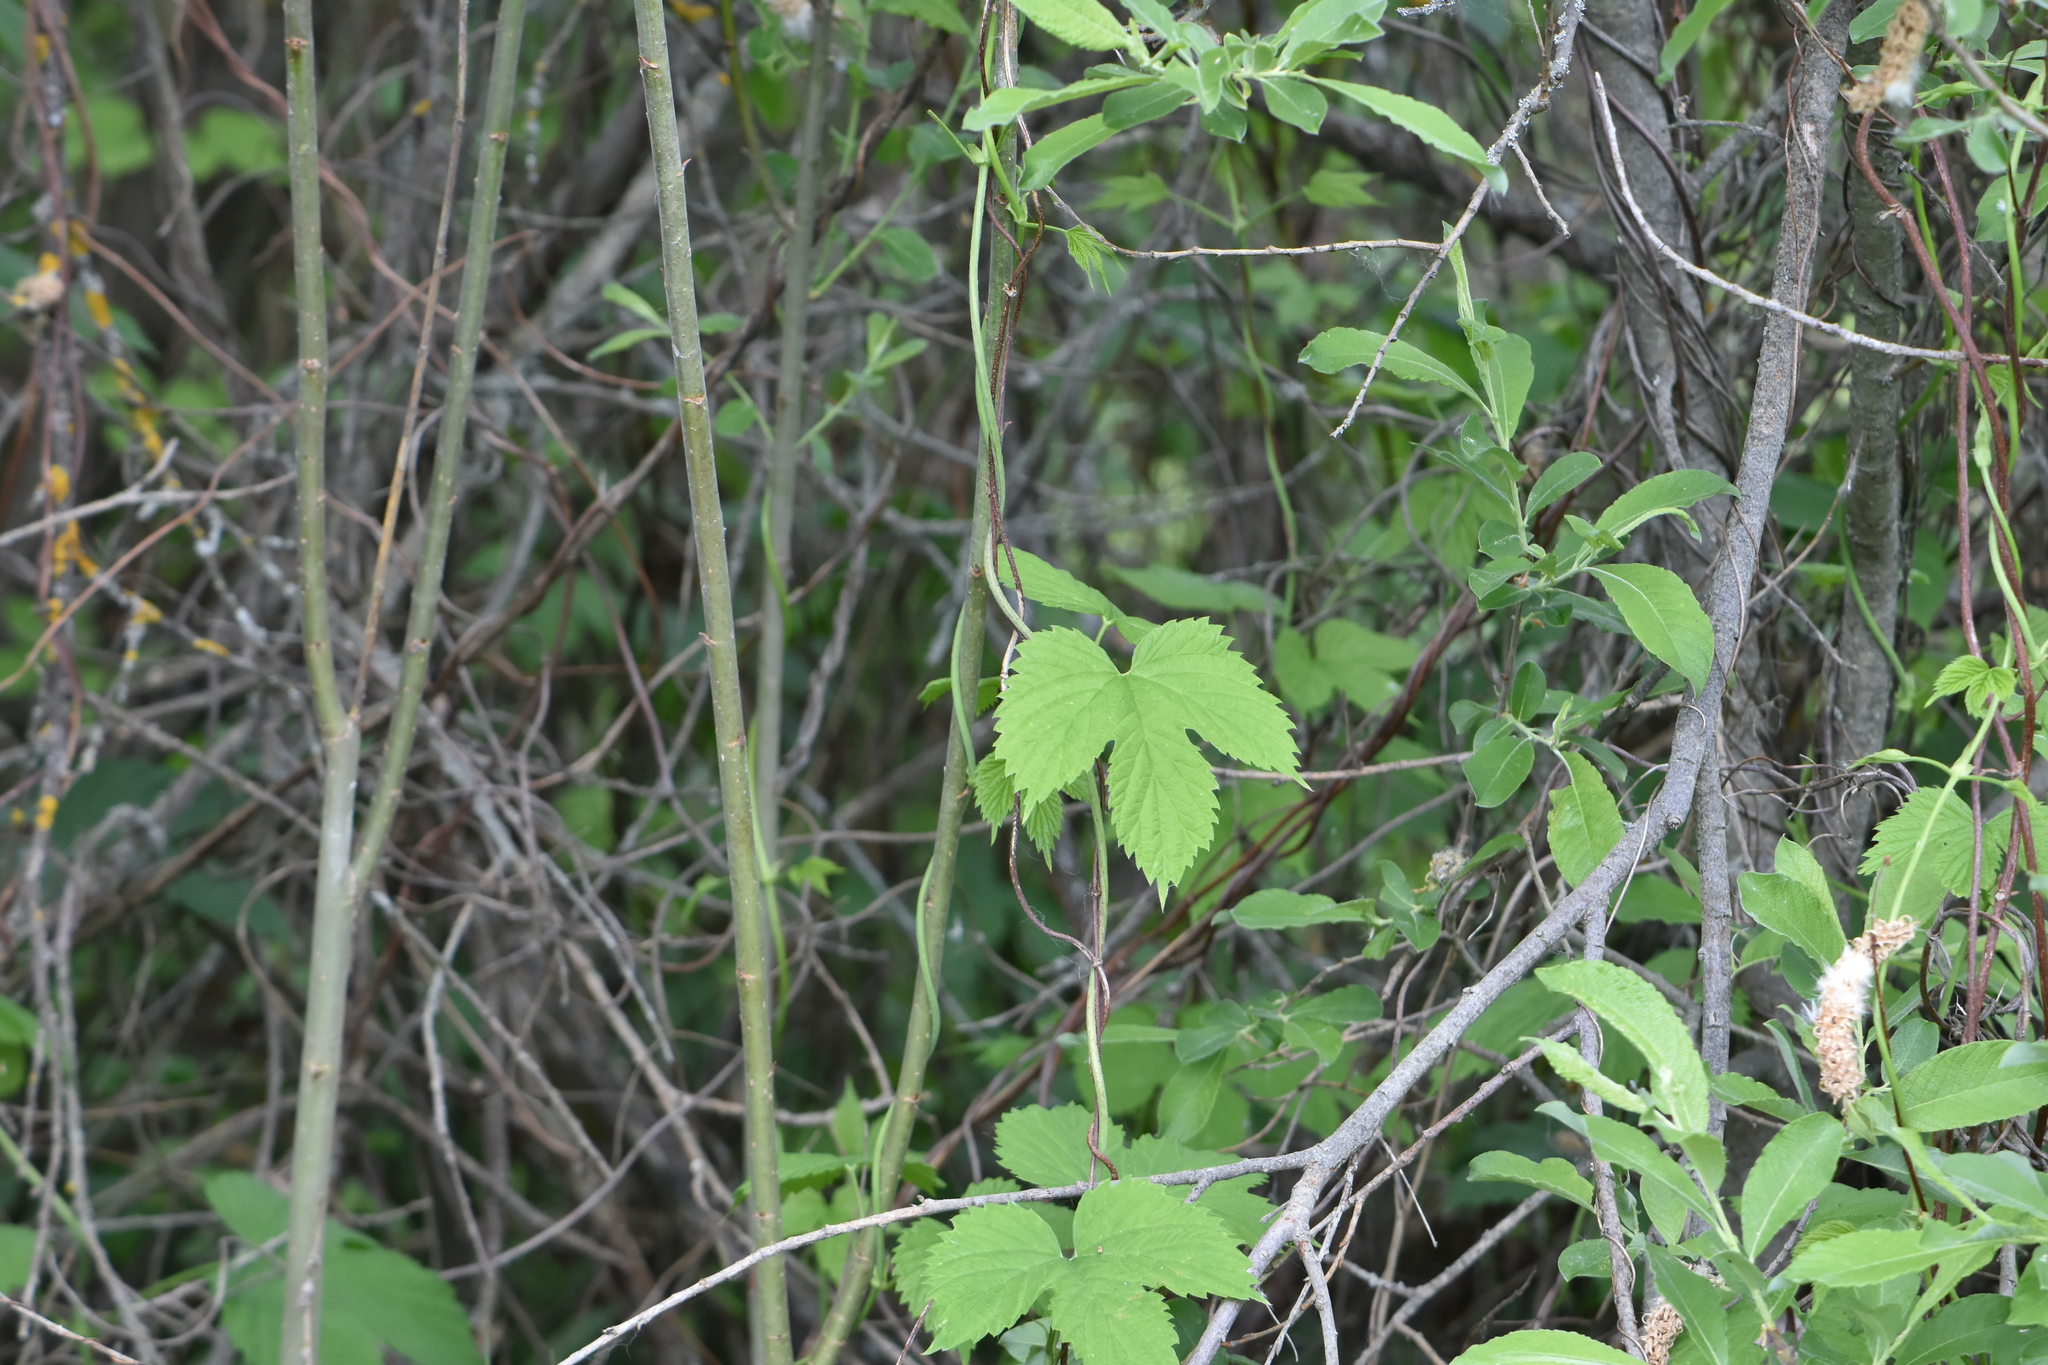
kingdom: Plantae
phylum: Tracheophyta
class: Magnoliopsida
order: Rosales
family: Cannabaceae
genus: Humulus
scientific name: Humulus lupulus
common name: Hop
